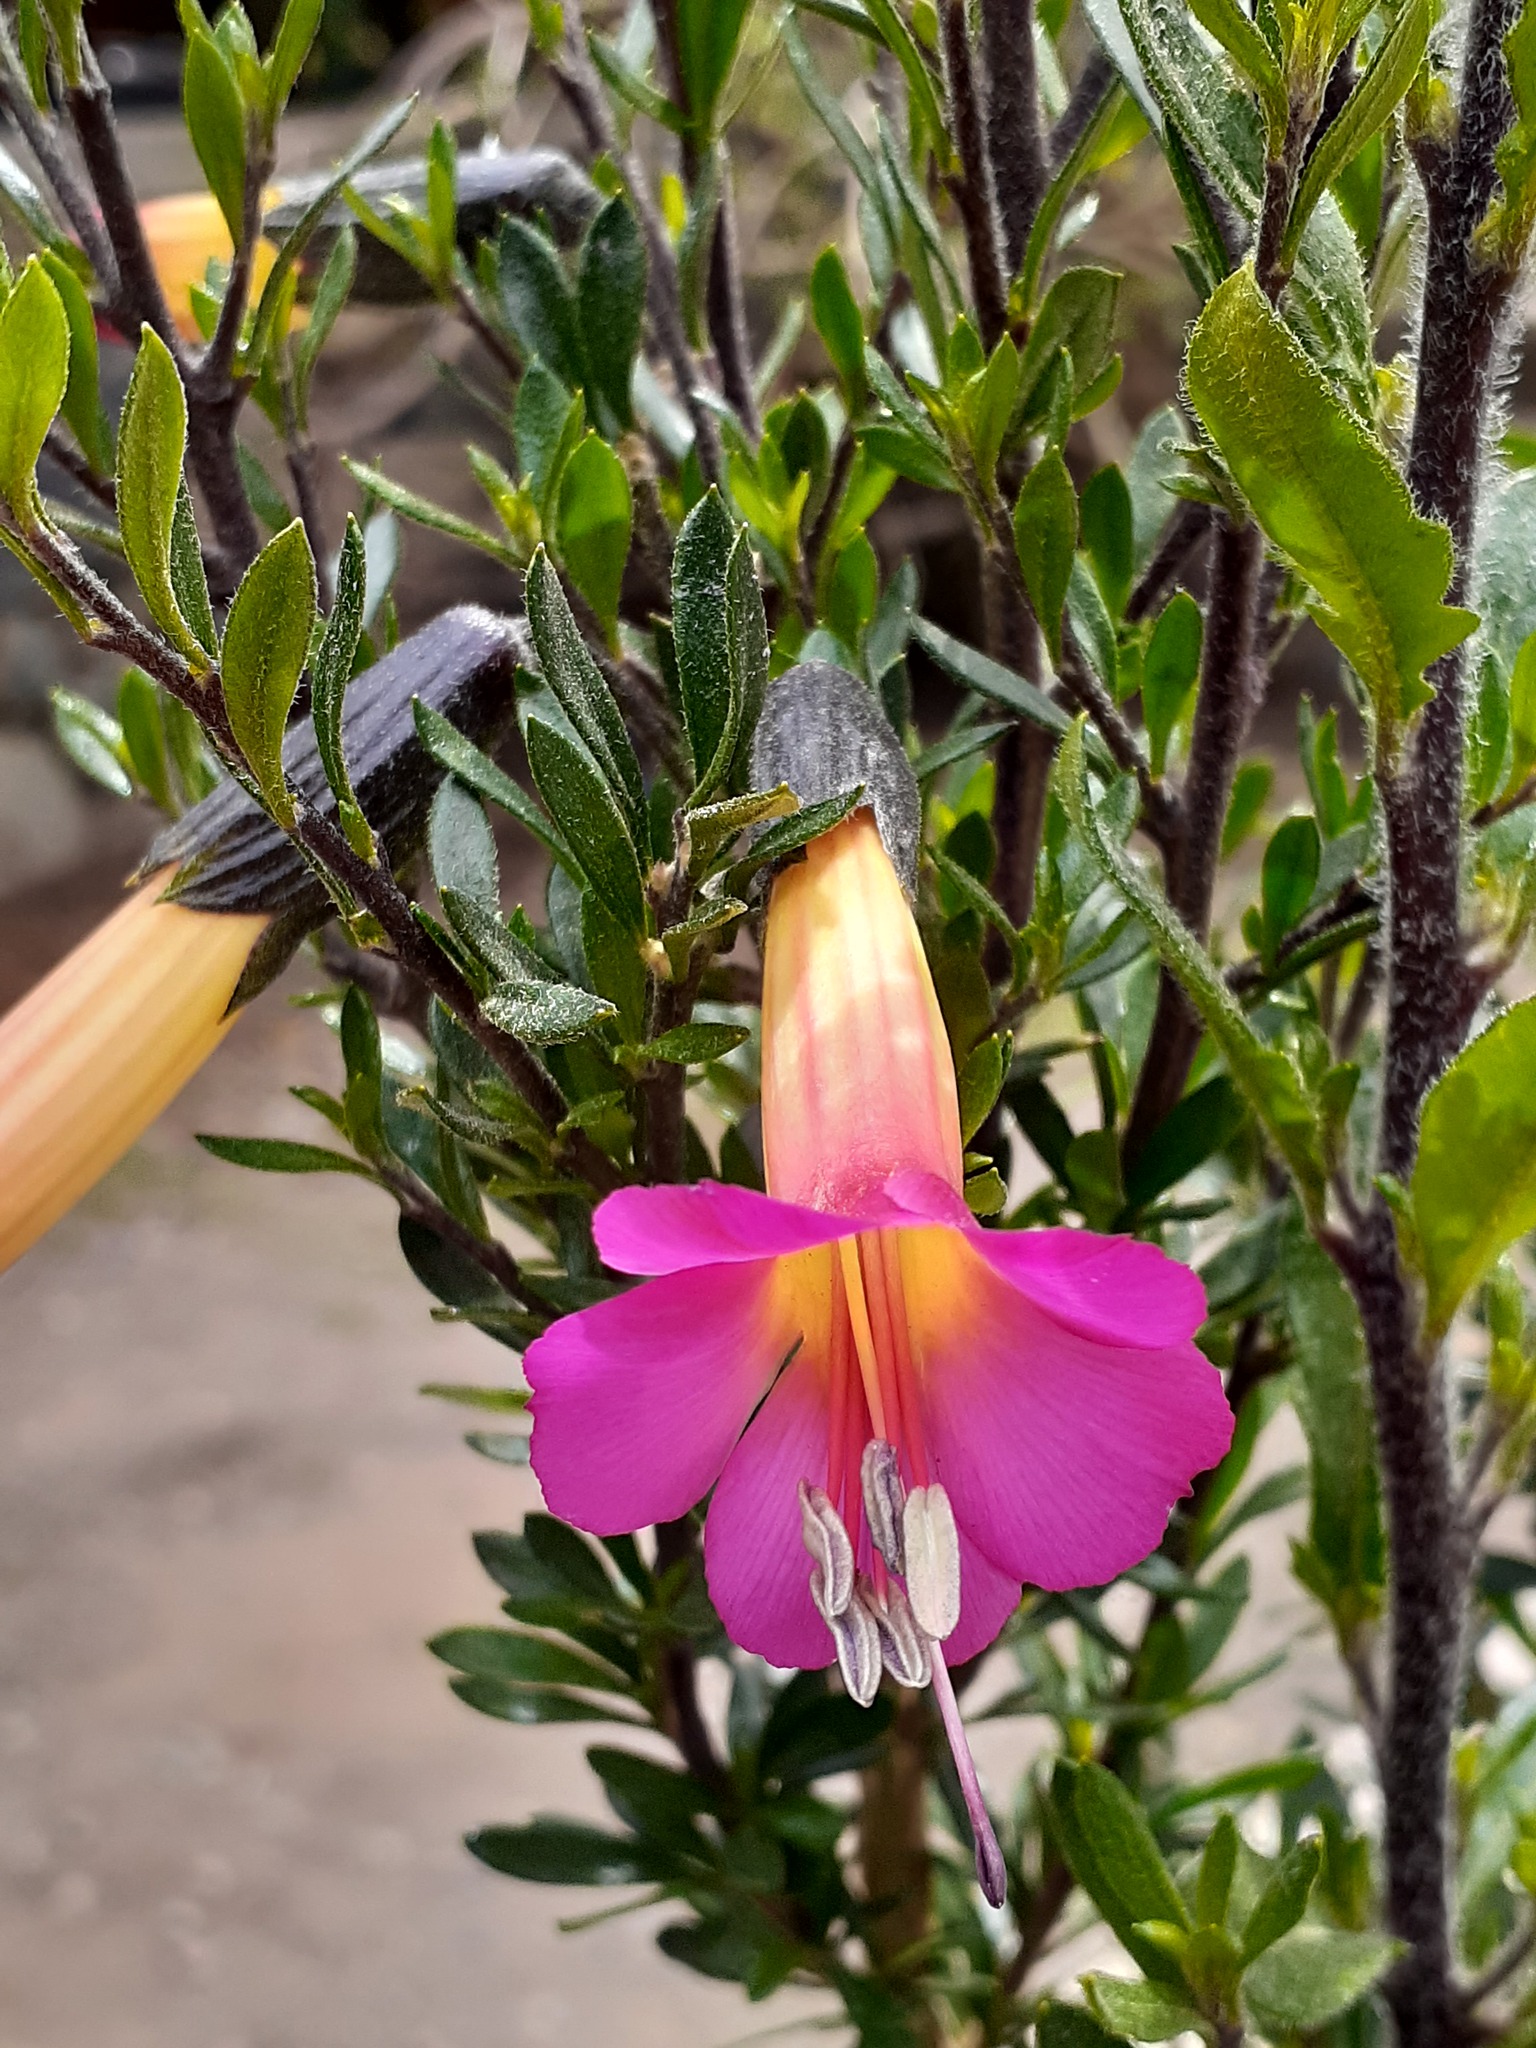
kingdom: Plantae
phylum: Tracheophyta
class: Magnoliopsida
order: Ericales
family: Polemoniaceae
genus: Cantua
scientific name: Cantua buxifolia
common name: Sacred-flower-of-the-incas
